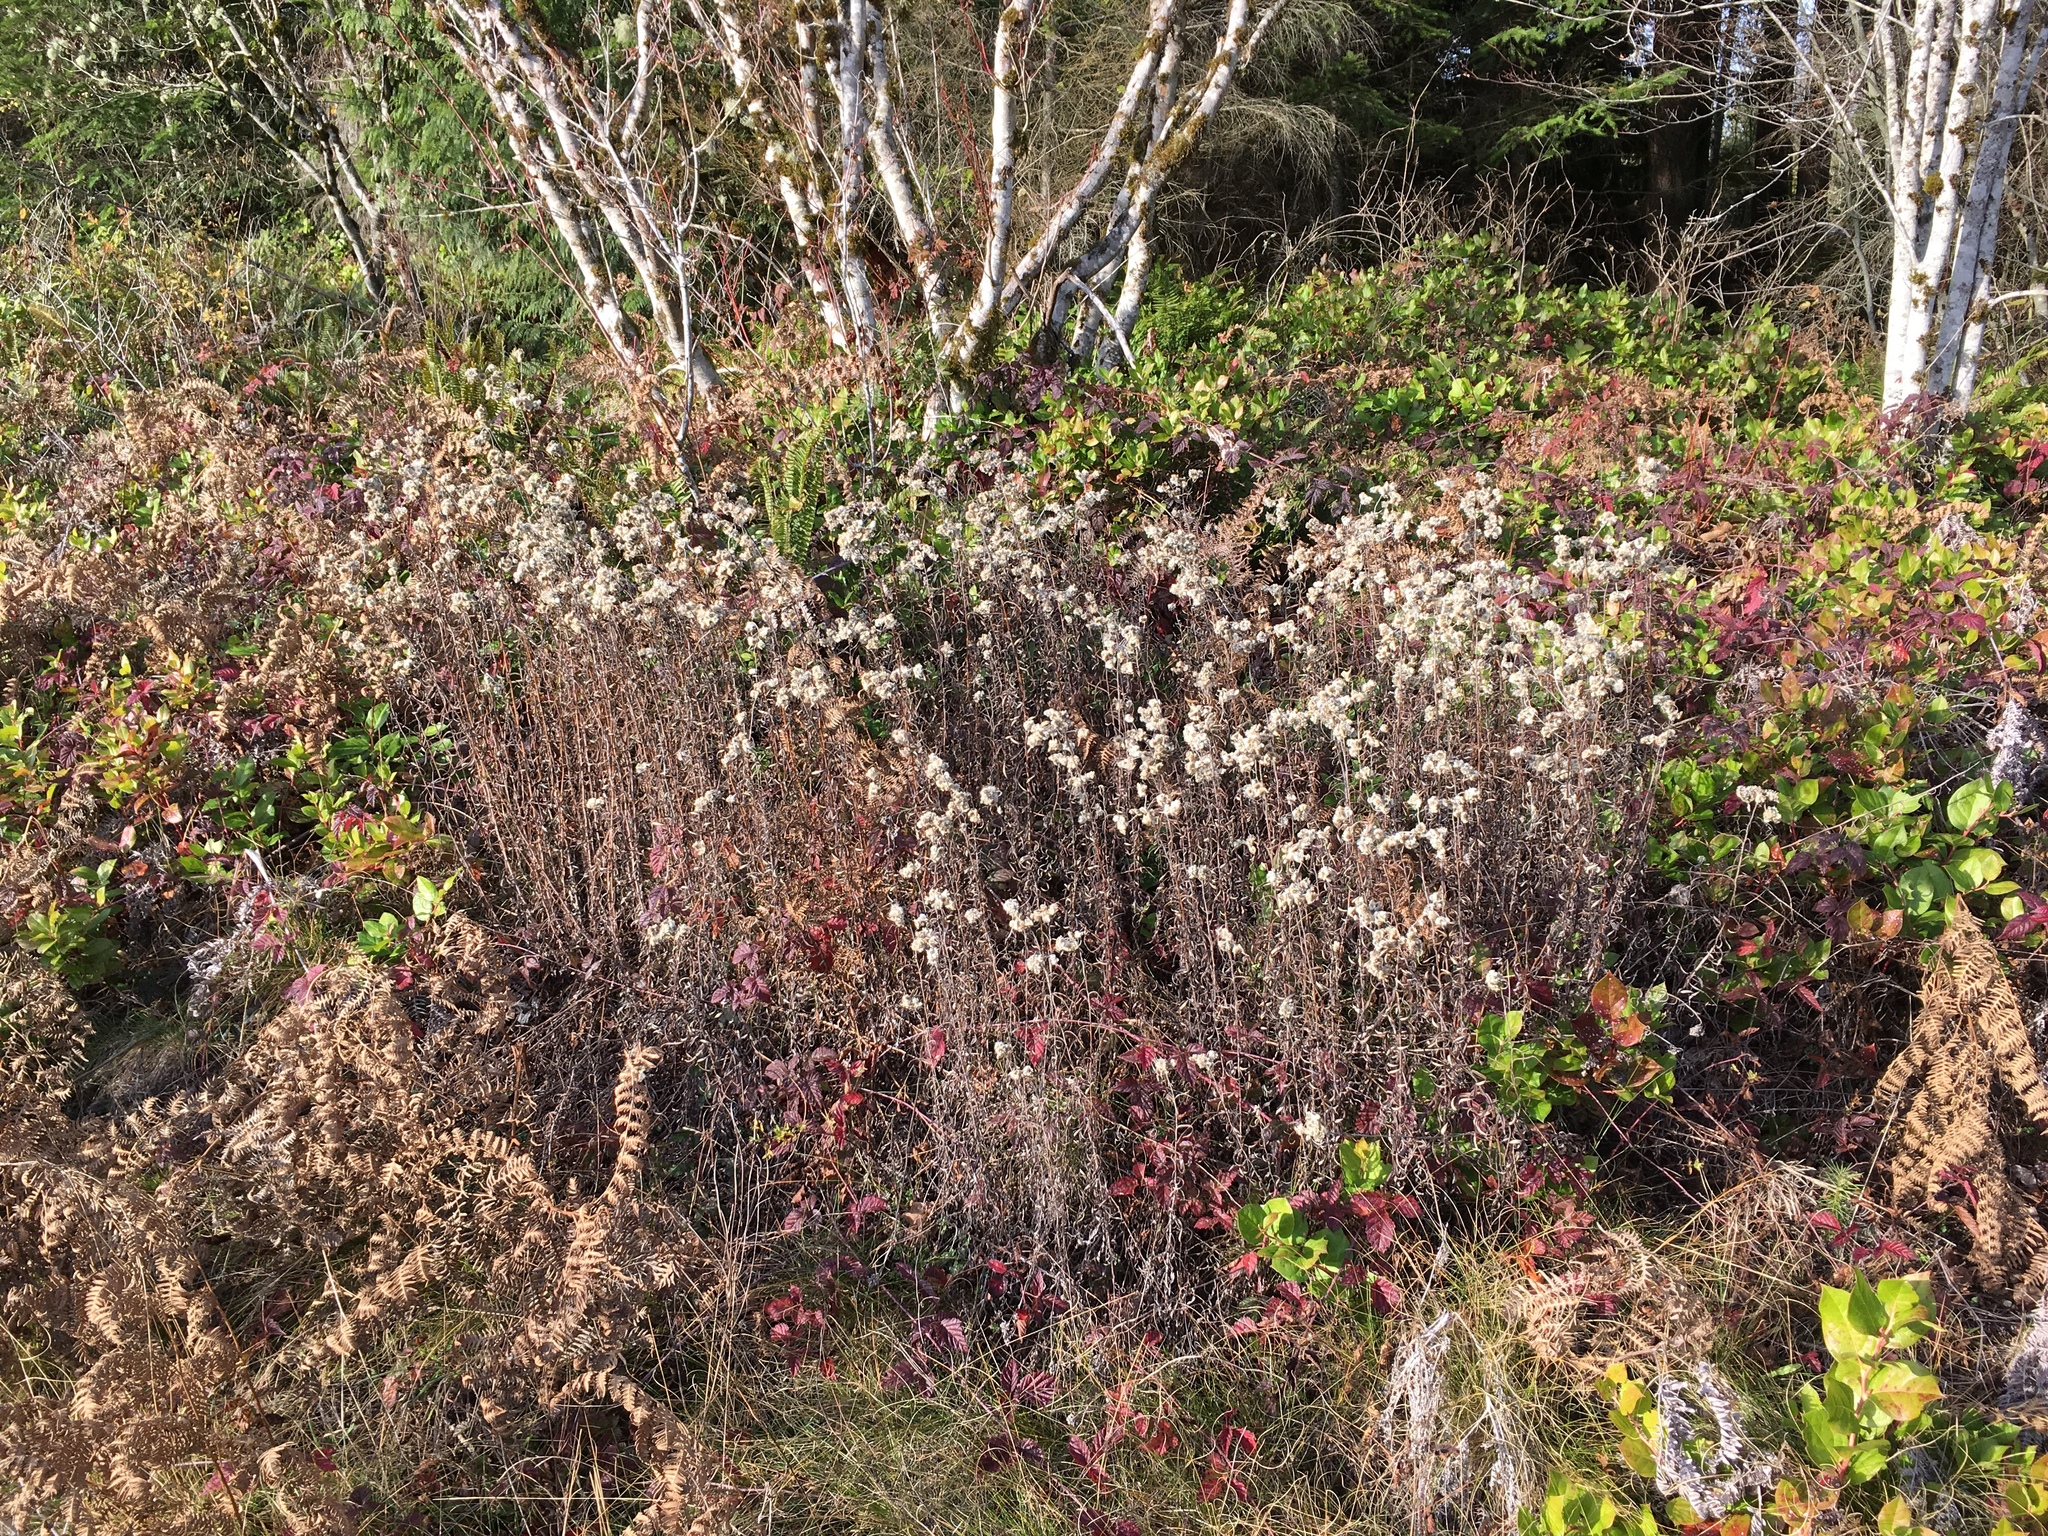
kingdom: Plantae
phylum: Tracheophyta
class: Magnoliopsida
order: Asterales
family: Asteraceae
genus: Anaphalis
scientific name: Anaphalis margaritacea
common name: Pearly everlasting
